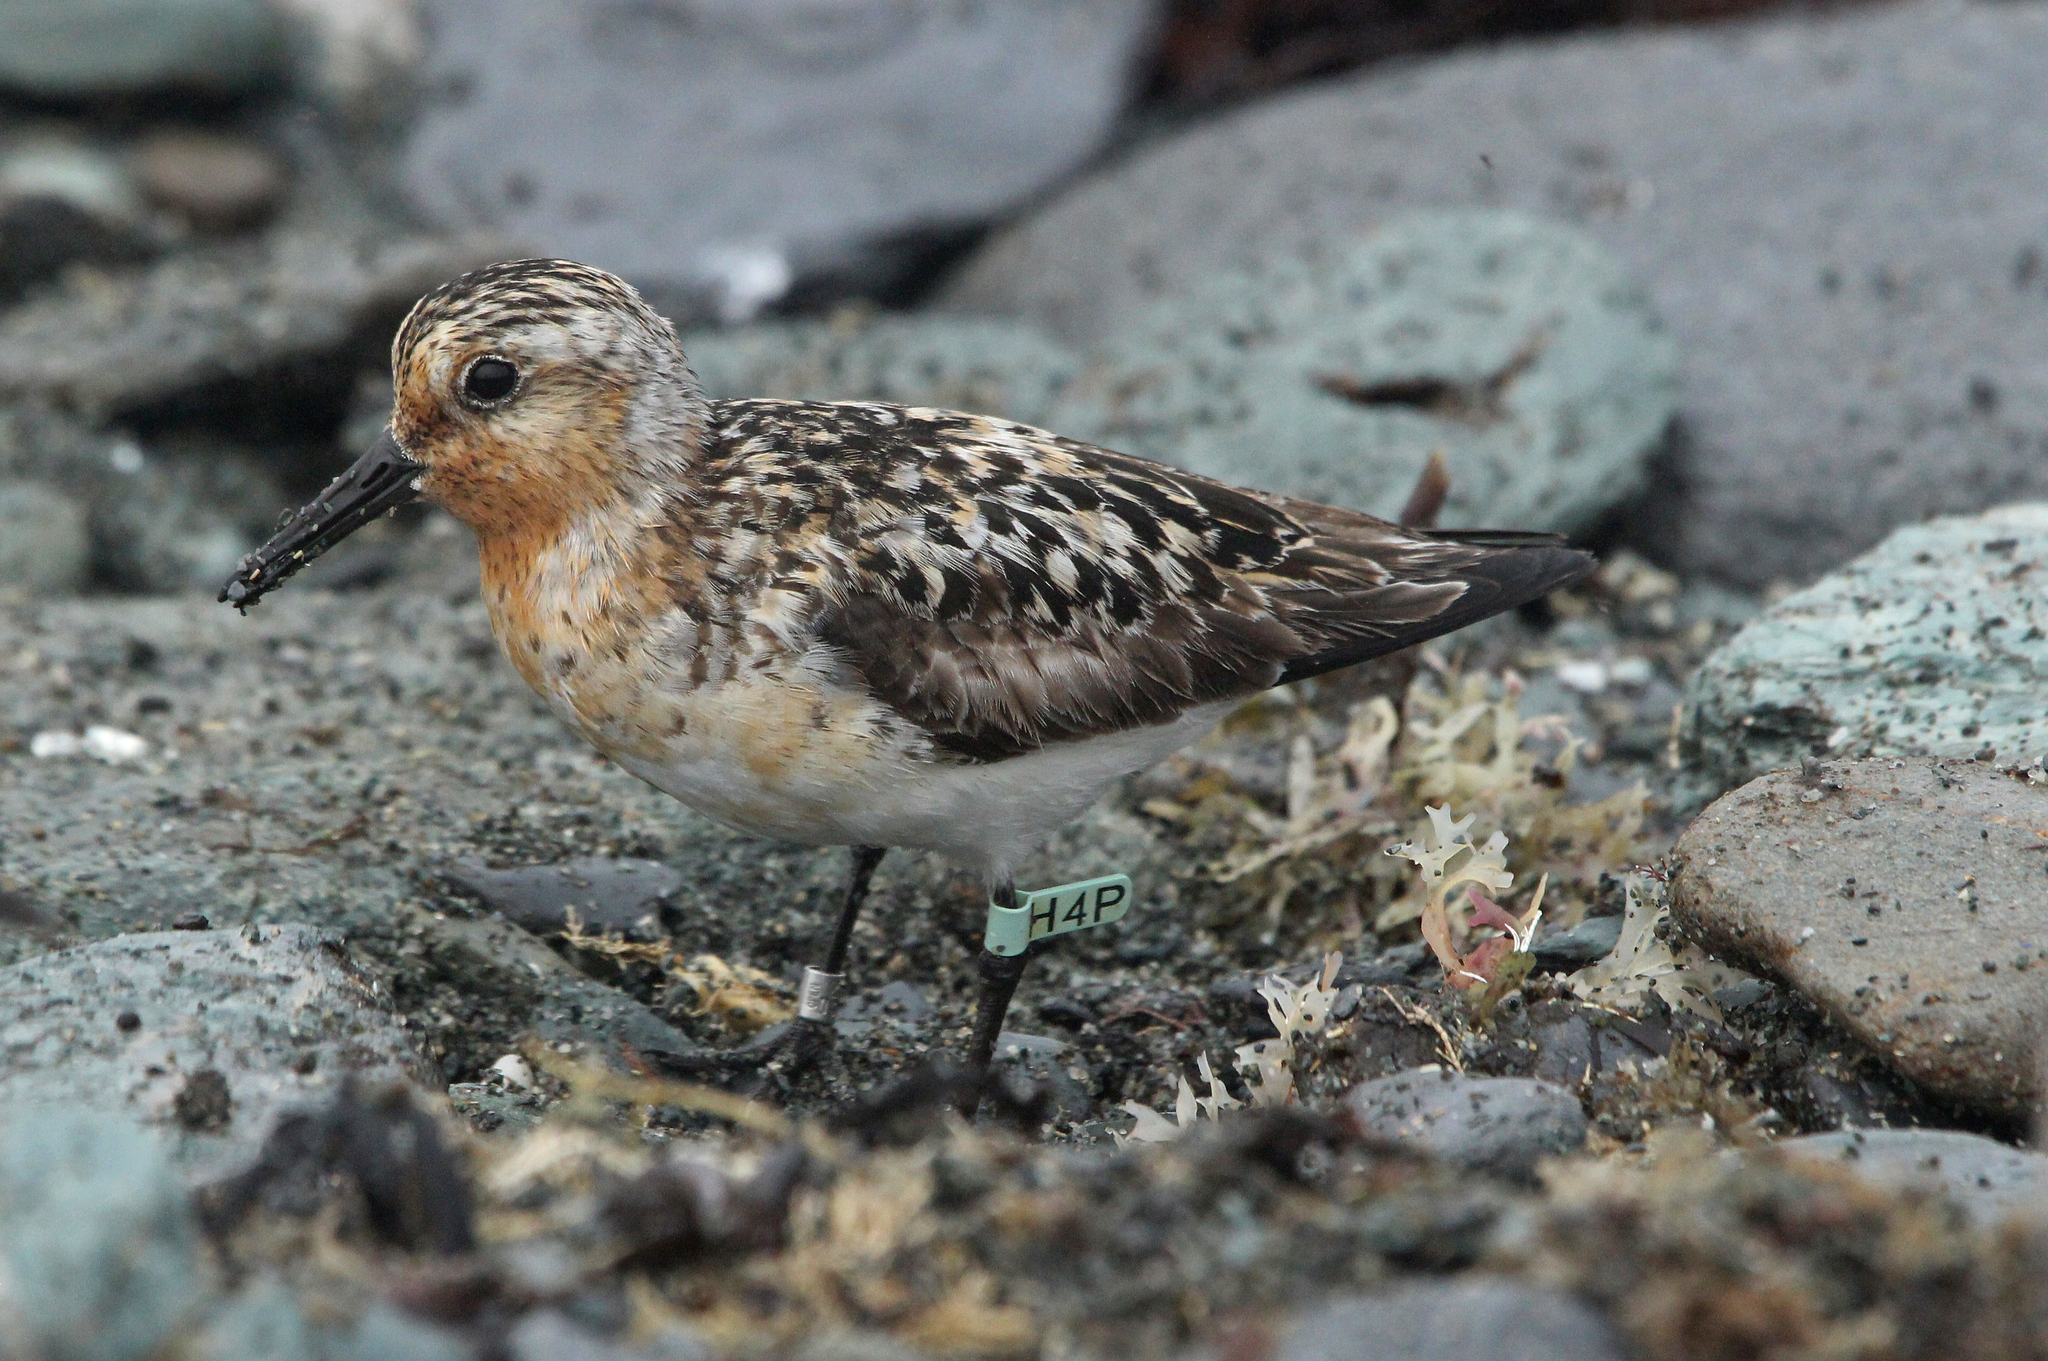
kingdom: Animalia
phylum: Chordata
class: Aves
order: Charadriiformes
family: Scolopacidae
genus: Calidris
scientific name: Calidris alba
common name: Sanderling
